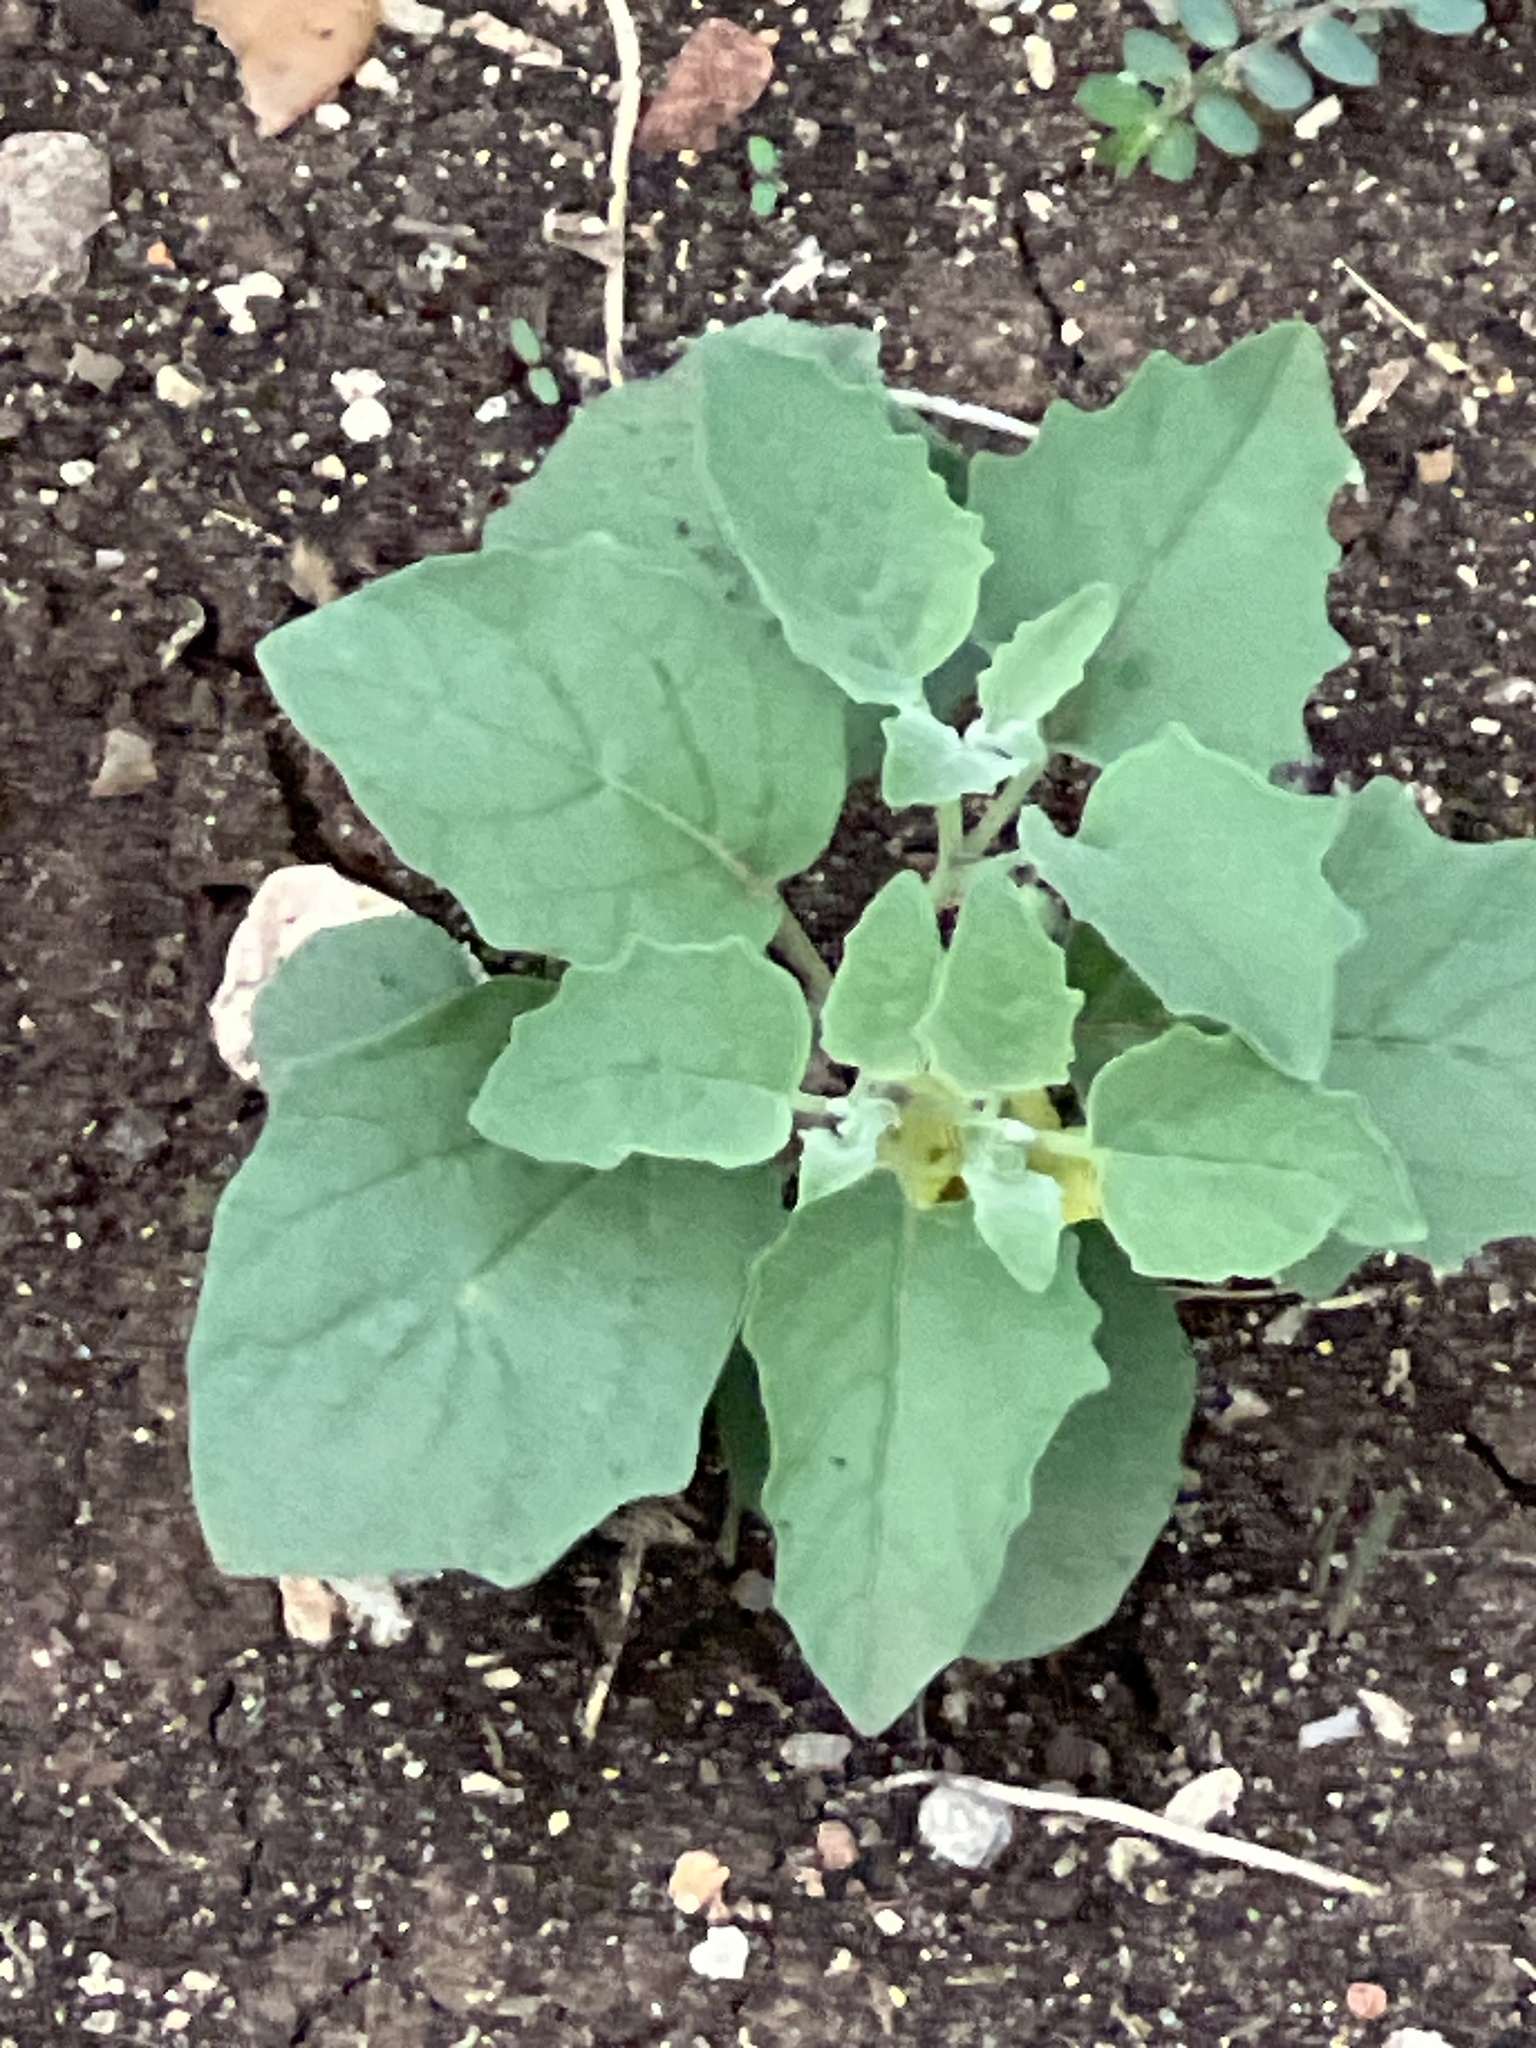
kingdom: Plantae
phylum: Tracheophyta
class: Magnoliopsida
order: Solanales
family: Solanaceae
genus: Physalis
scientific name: Physalis cinerascens
